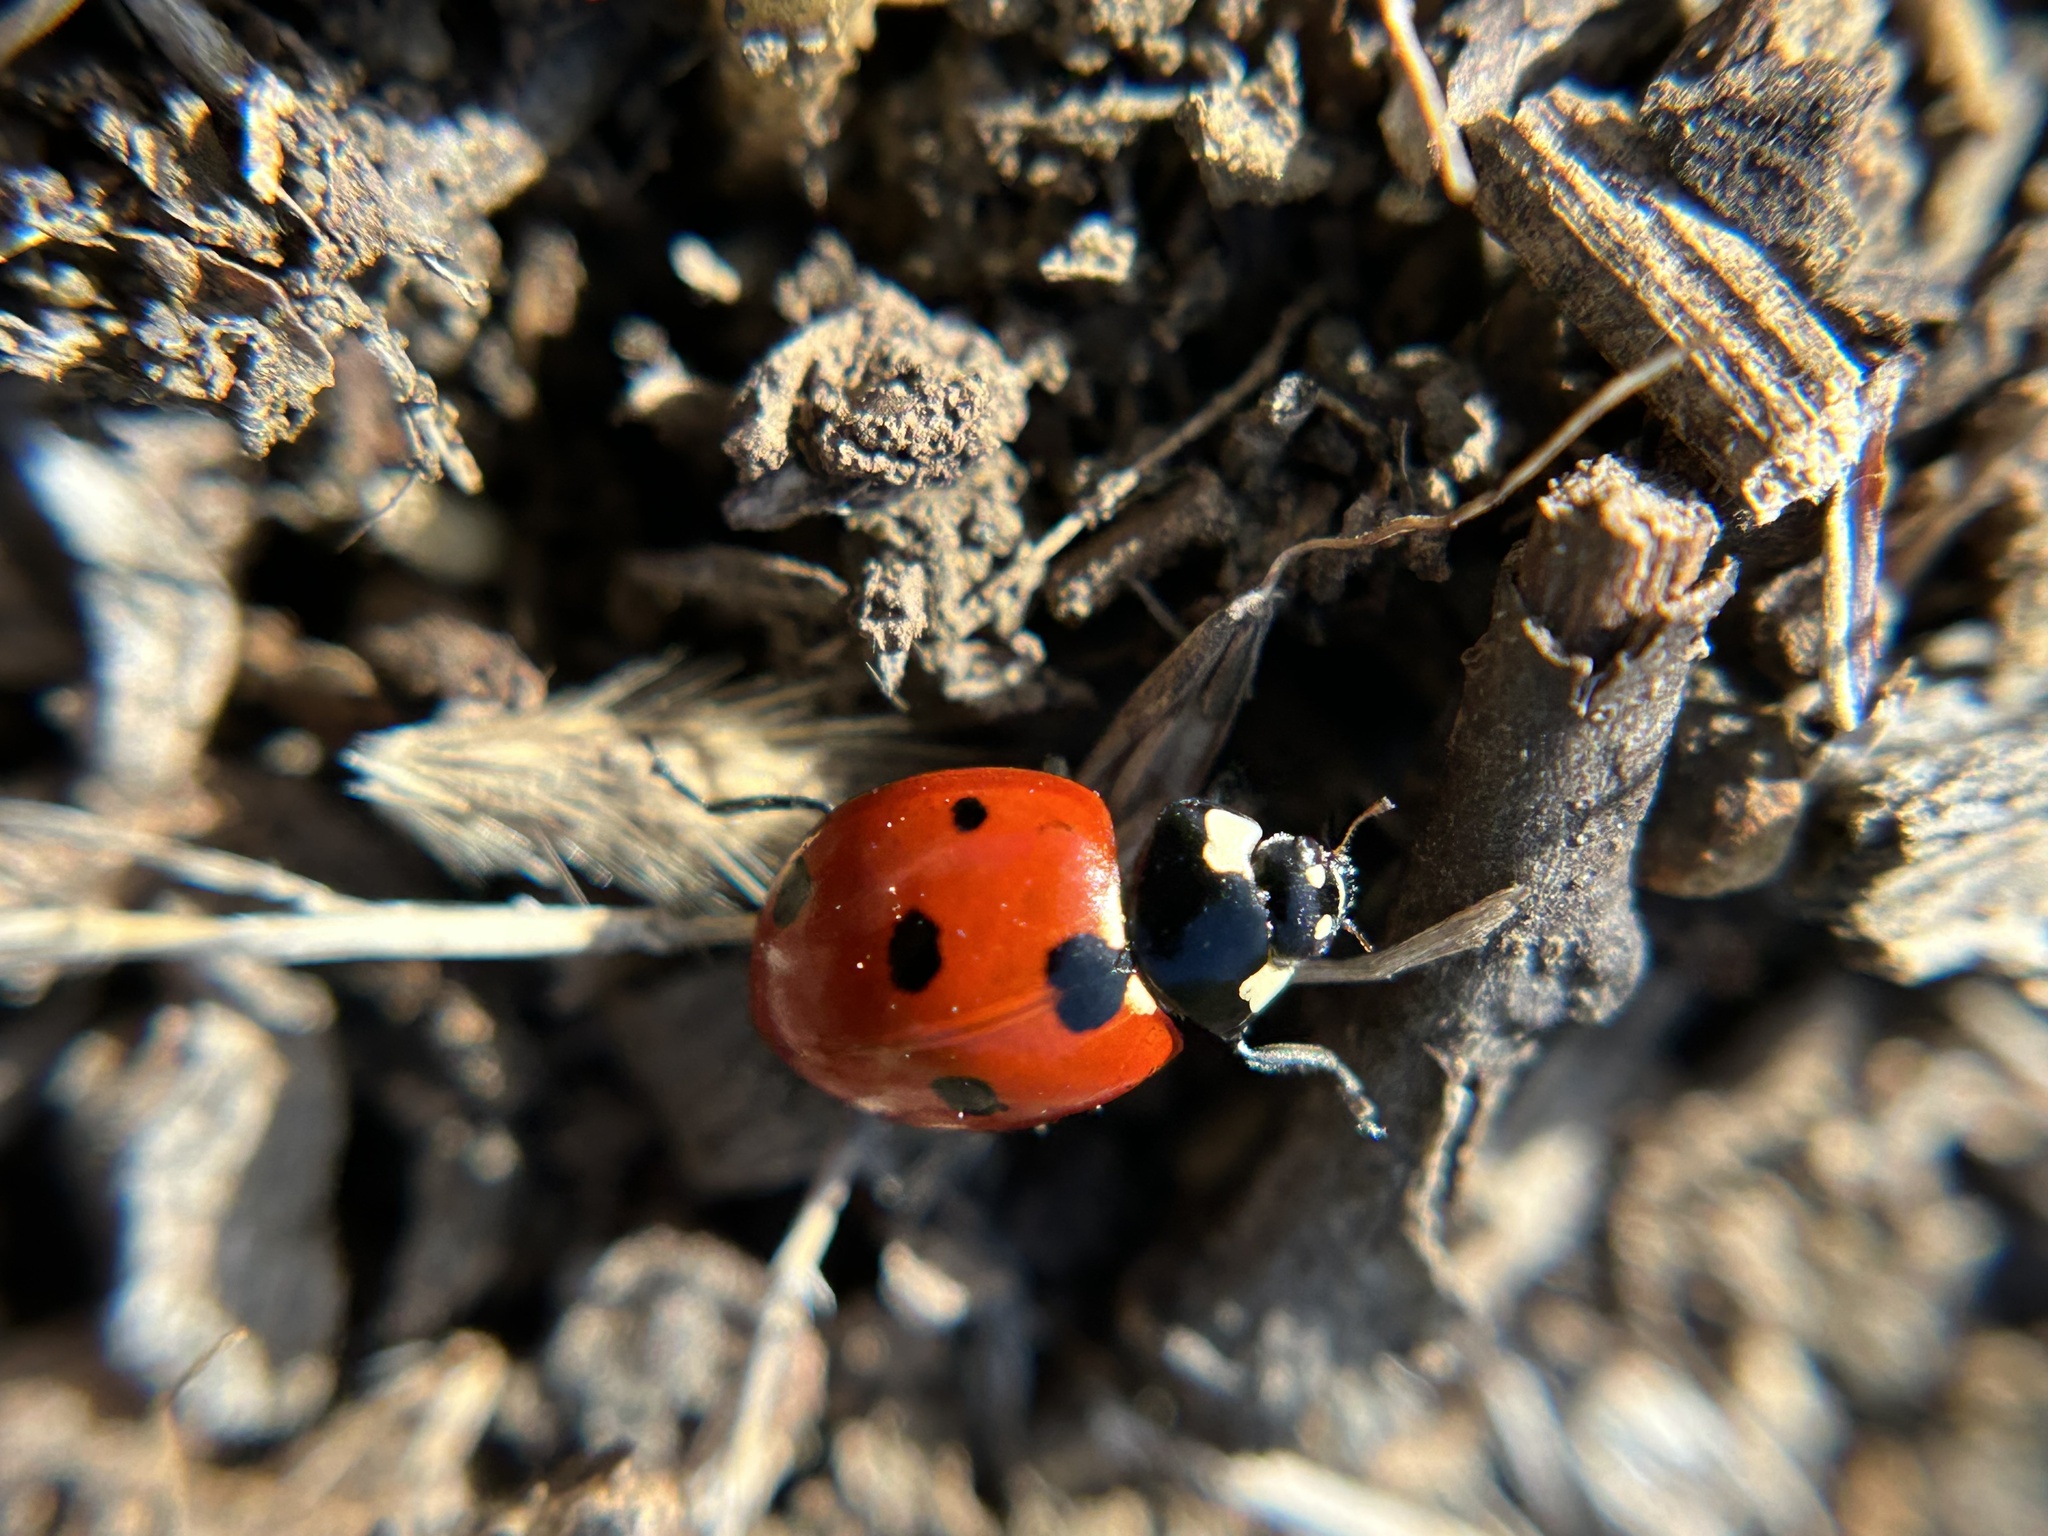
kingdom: Animalia
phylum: Arthropoda
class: Insecta
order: Coleoptera
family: Coccinellidae
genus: Coccinella
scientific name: Coccinella septempunctata
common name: Sevenspotted lady beetle
